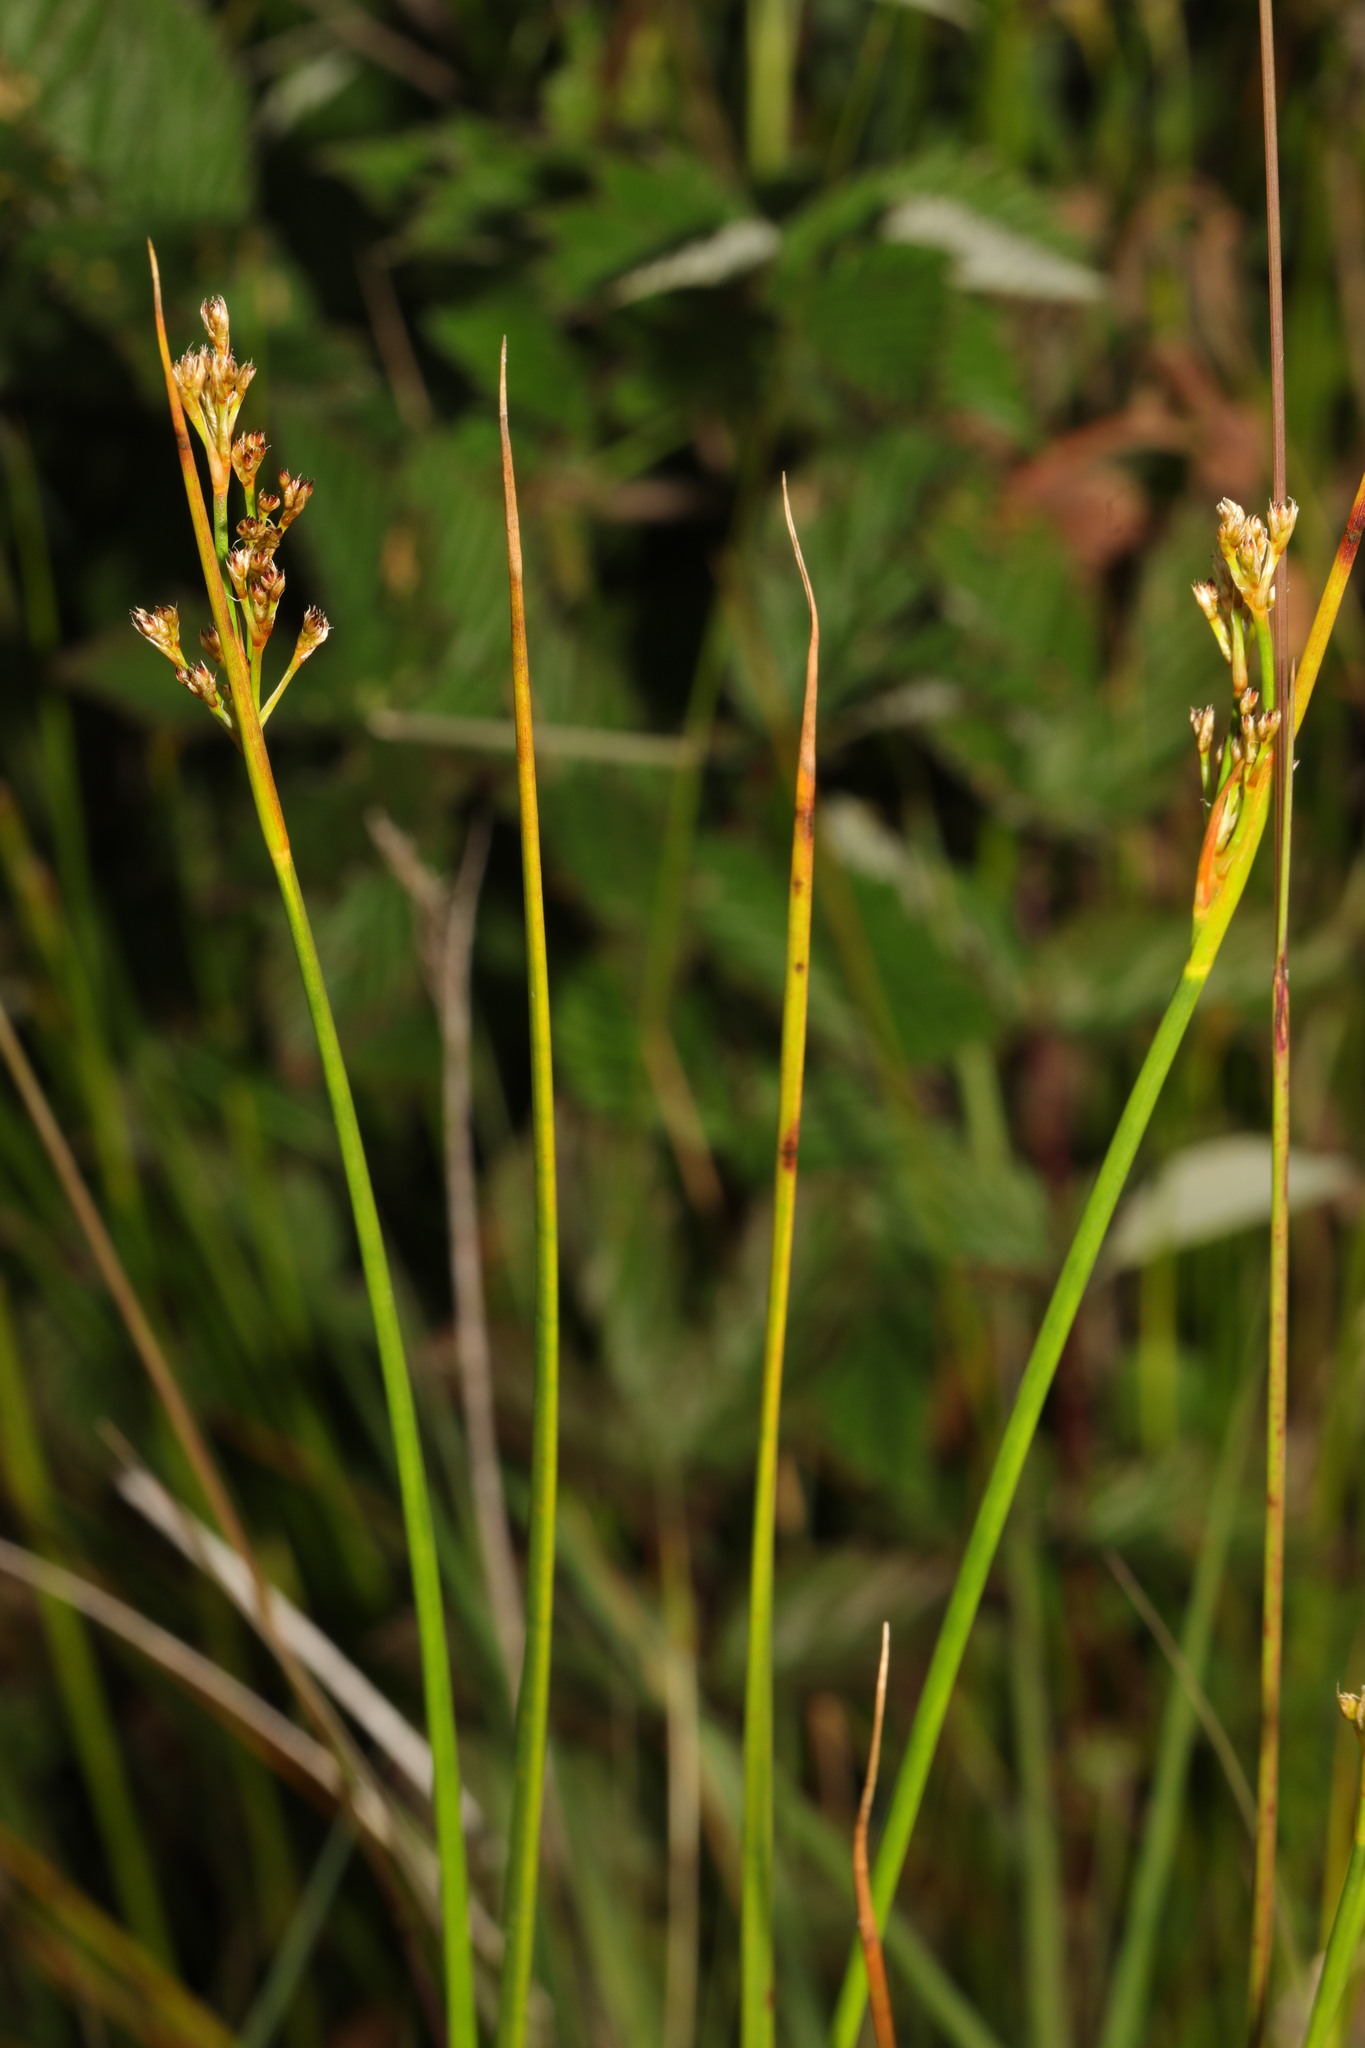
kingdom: Plantae
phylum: Tracheophyta
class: Liliopsida
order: Poales
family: Juncaceae
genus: Juncus
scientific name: Juncus acutiflorus
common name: Sharp-flowered rush
